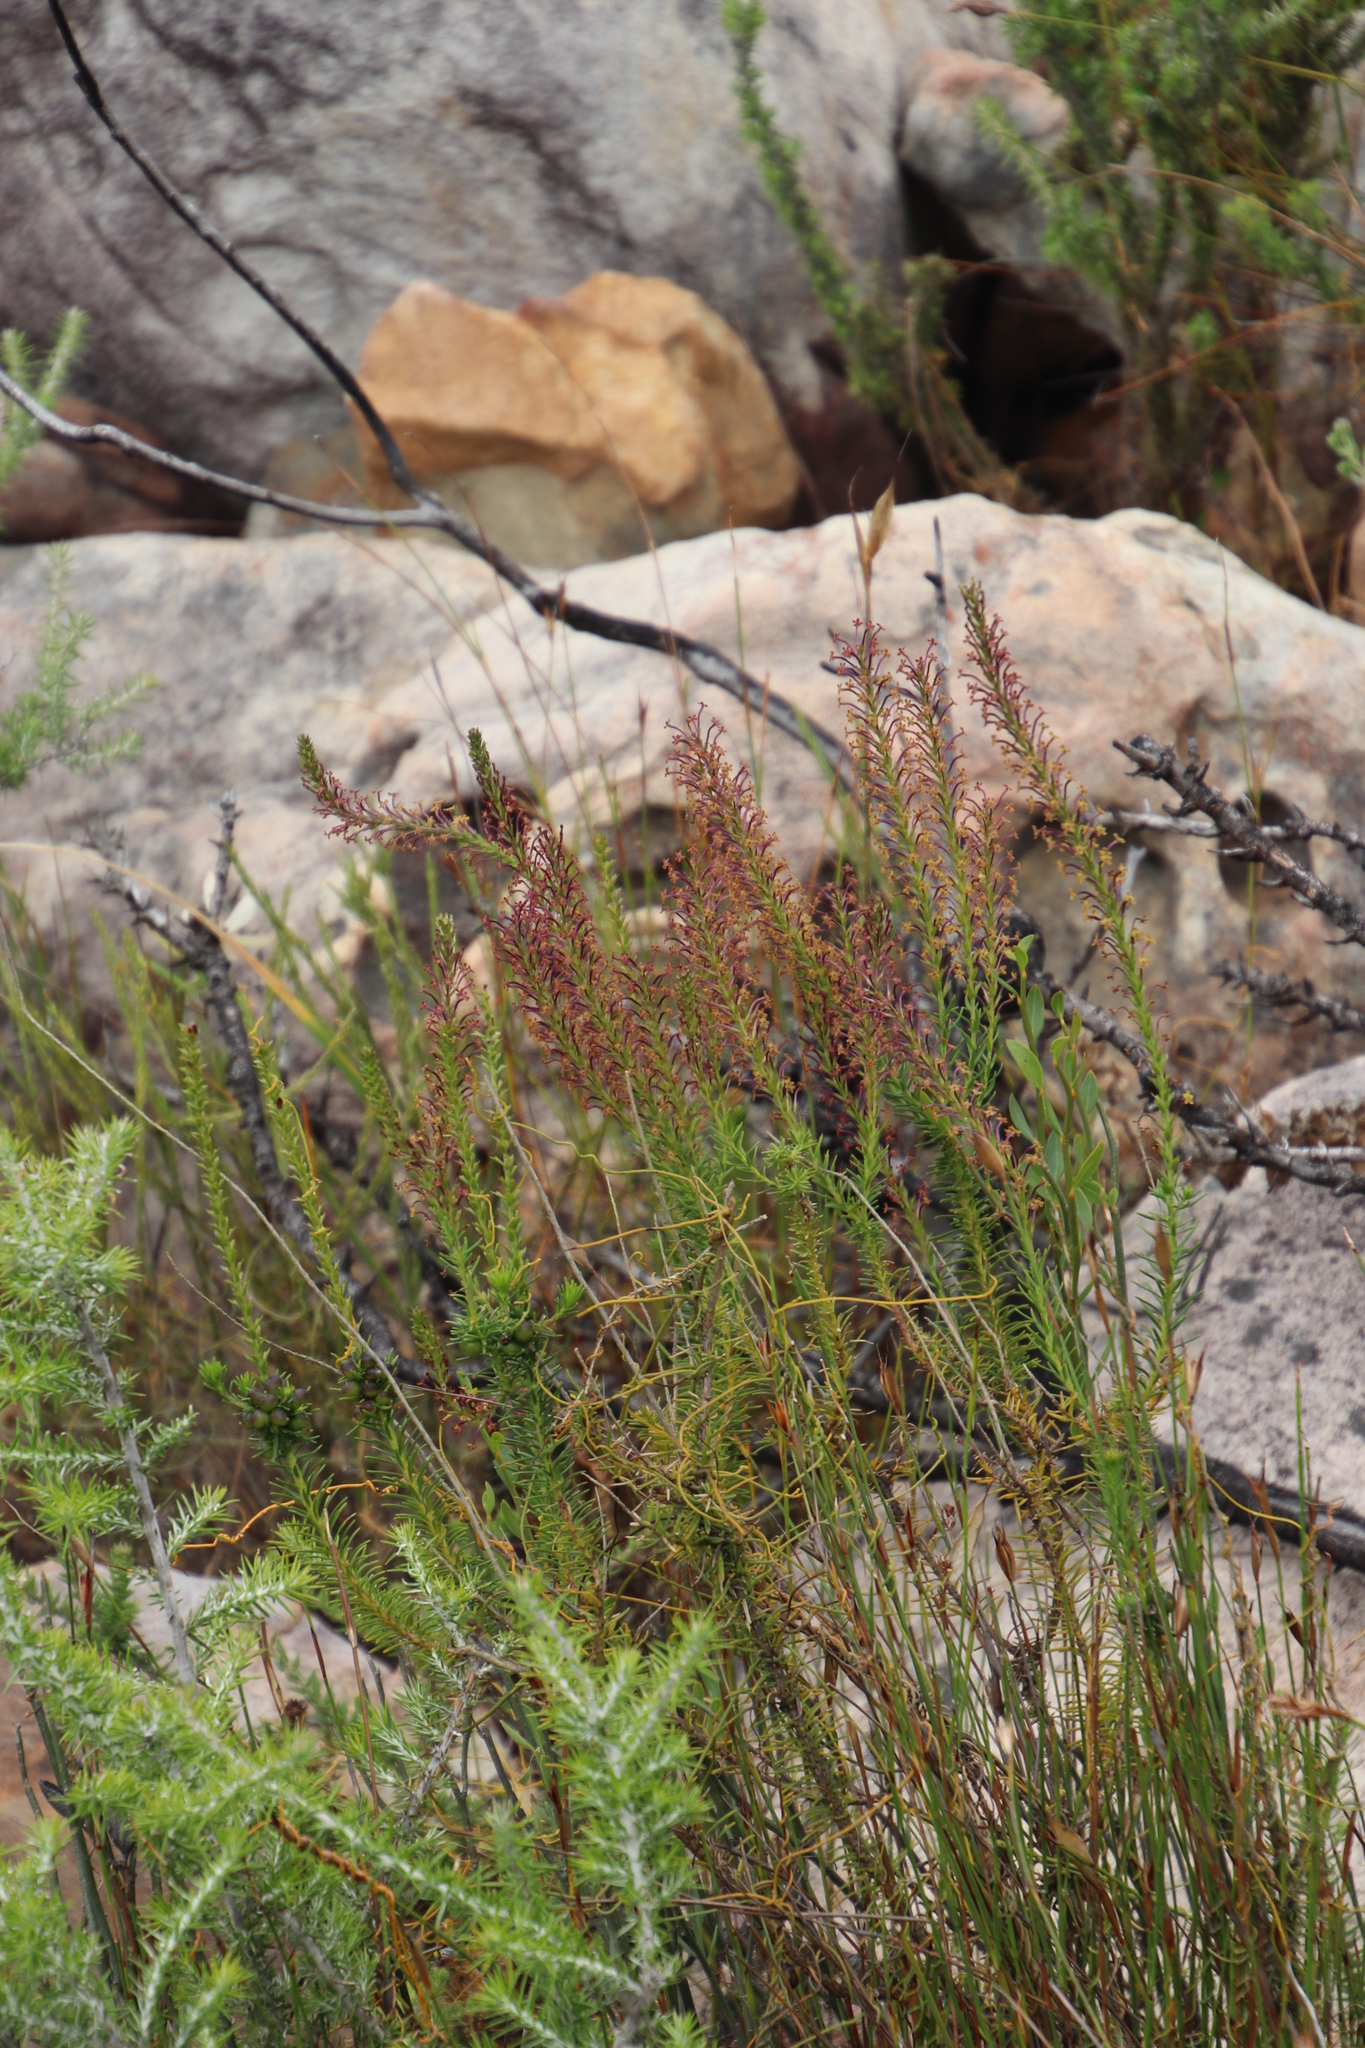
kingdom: Plantae
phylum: Tracheophyta
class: Magnoliopsida
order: Lamiales
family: Scrophulariaceae
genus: Microdon
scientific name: Microdon dubius
